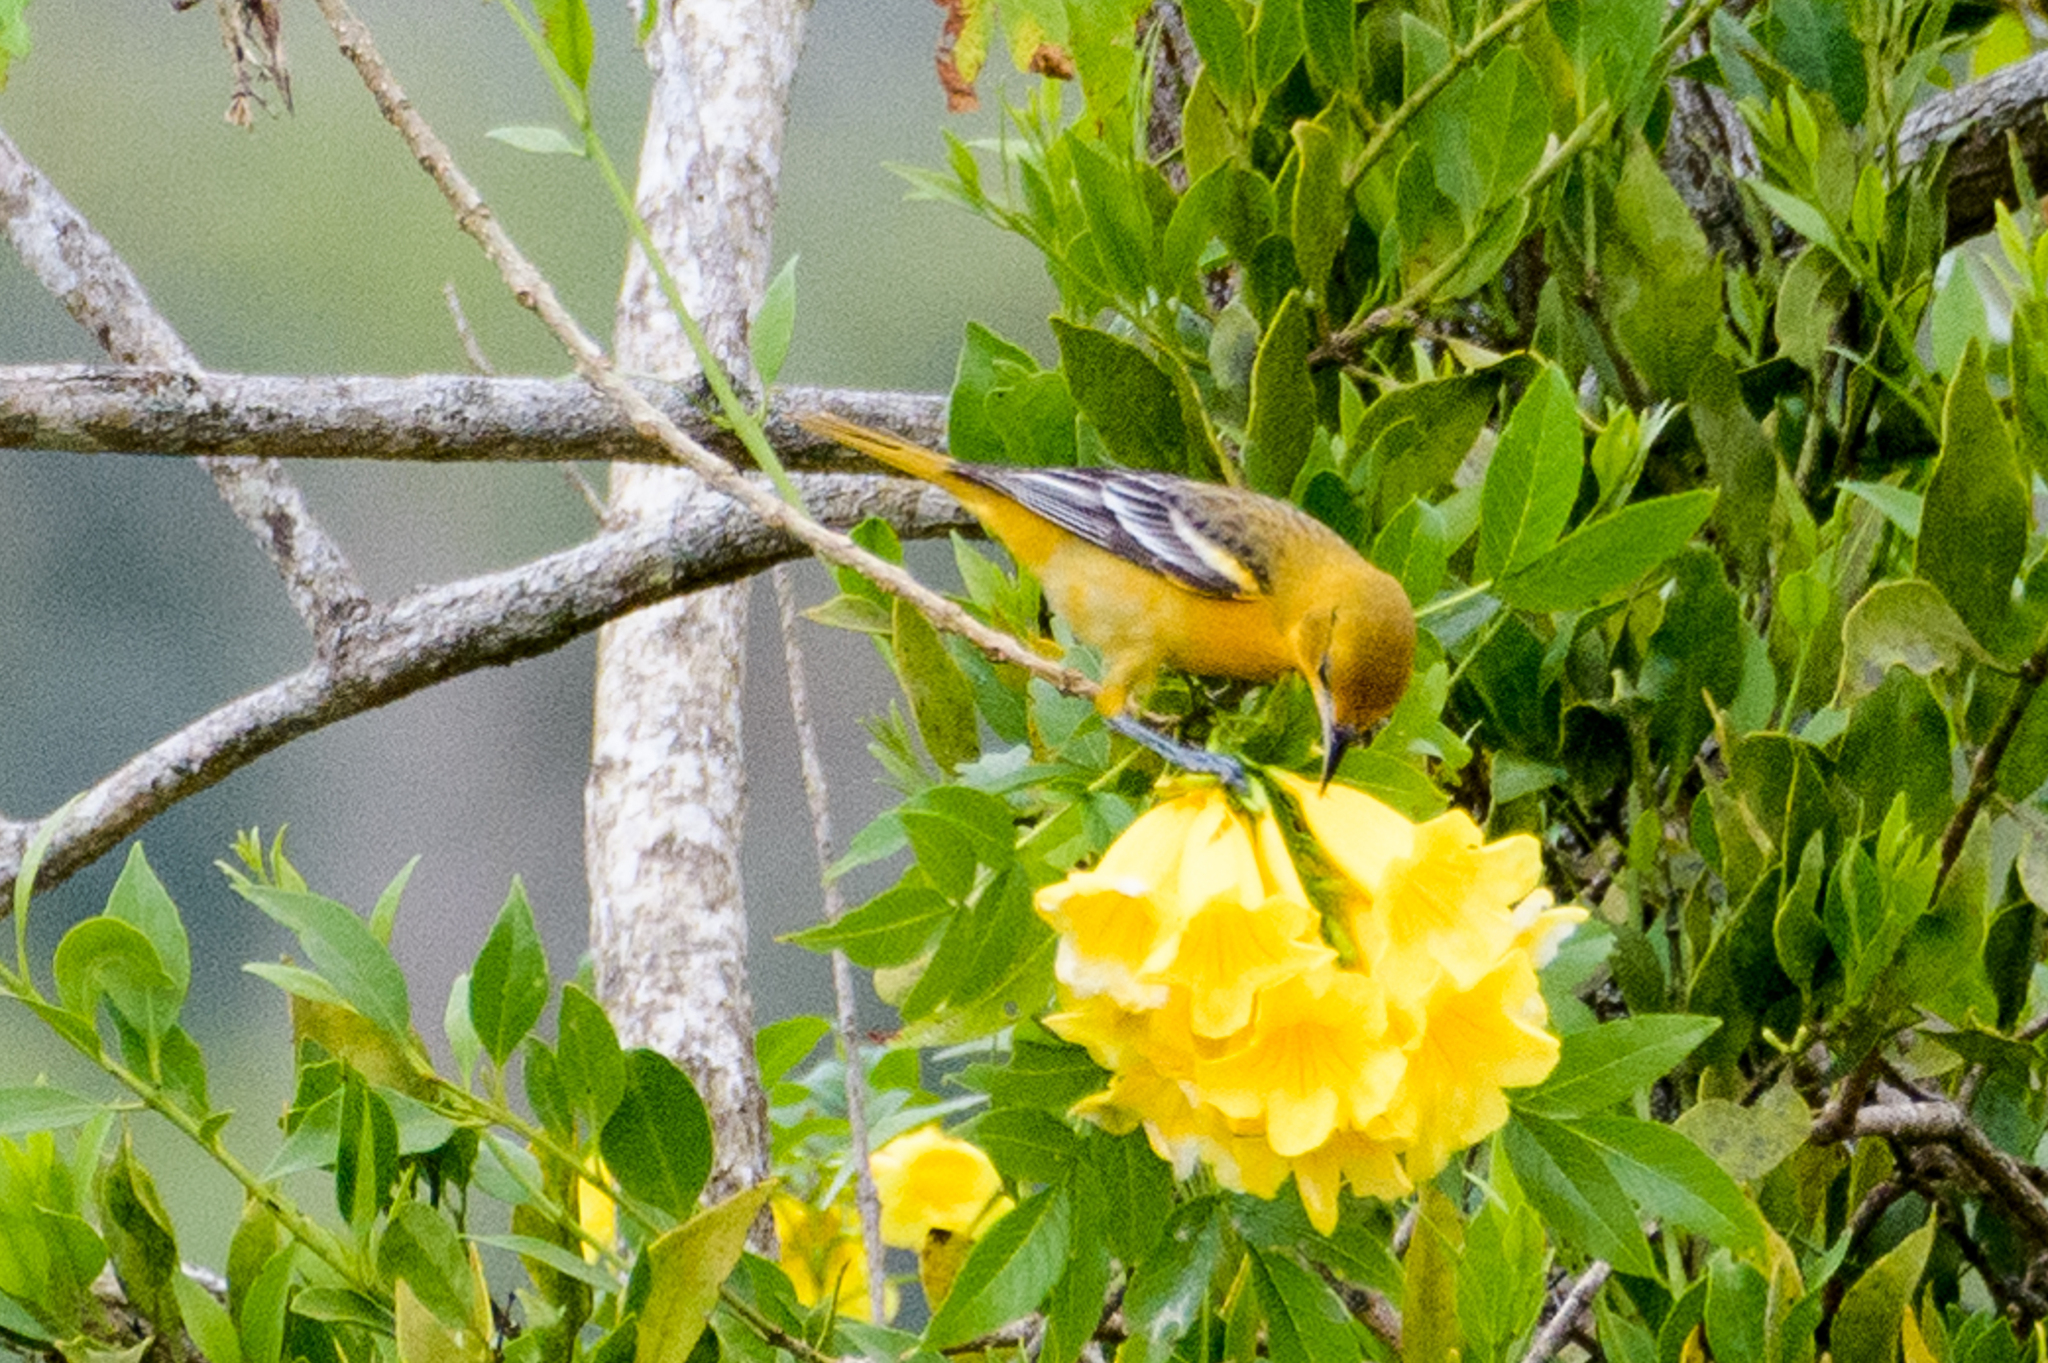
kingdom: Animalia
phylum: Chordata
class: Aves
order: Passeriformes
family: Icteridae
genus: Icterus
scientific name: Icterus galbula
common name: Baltimore oriole
